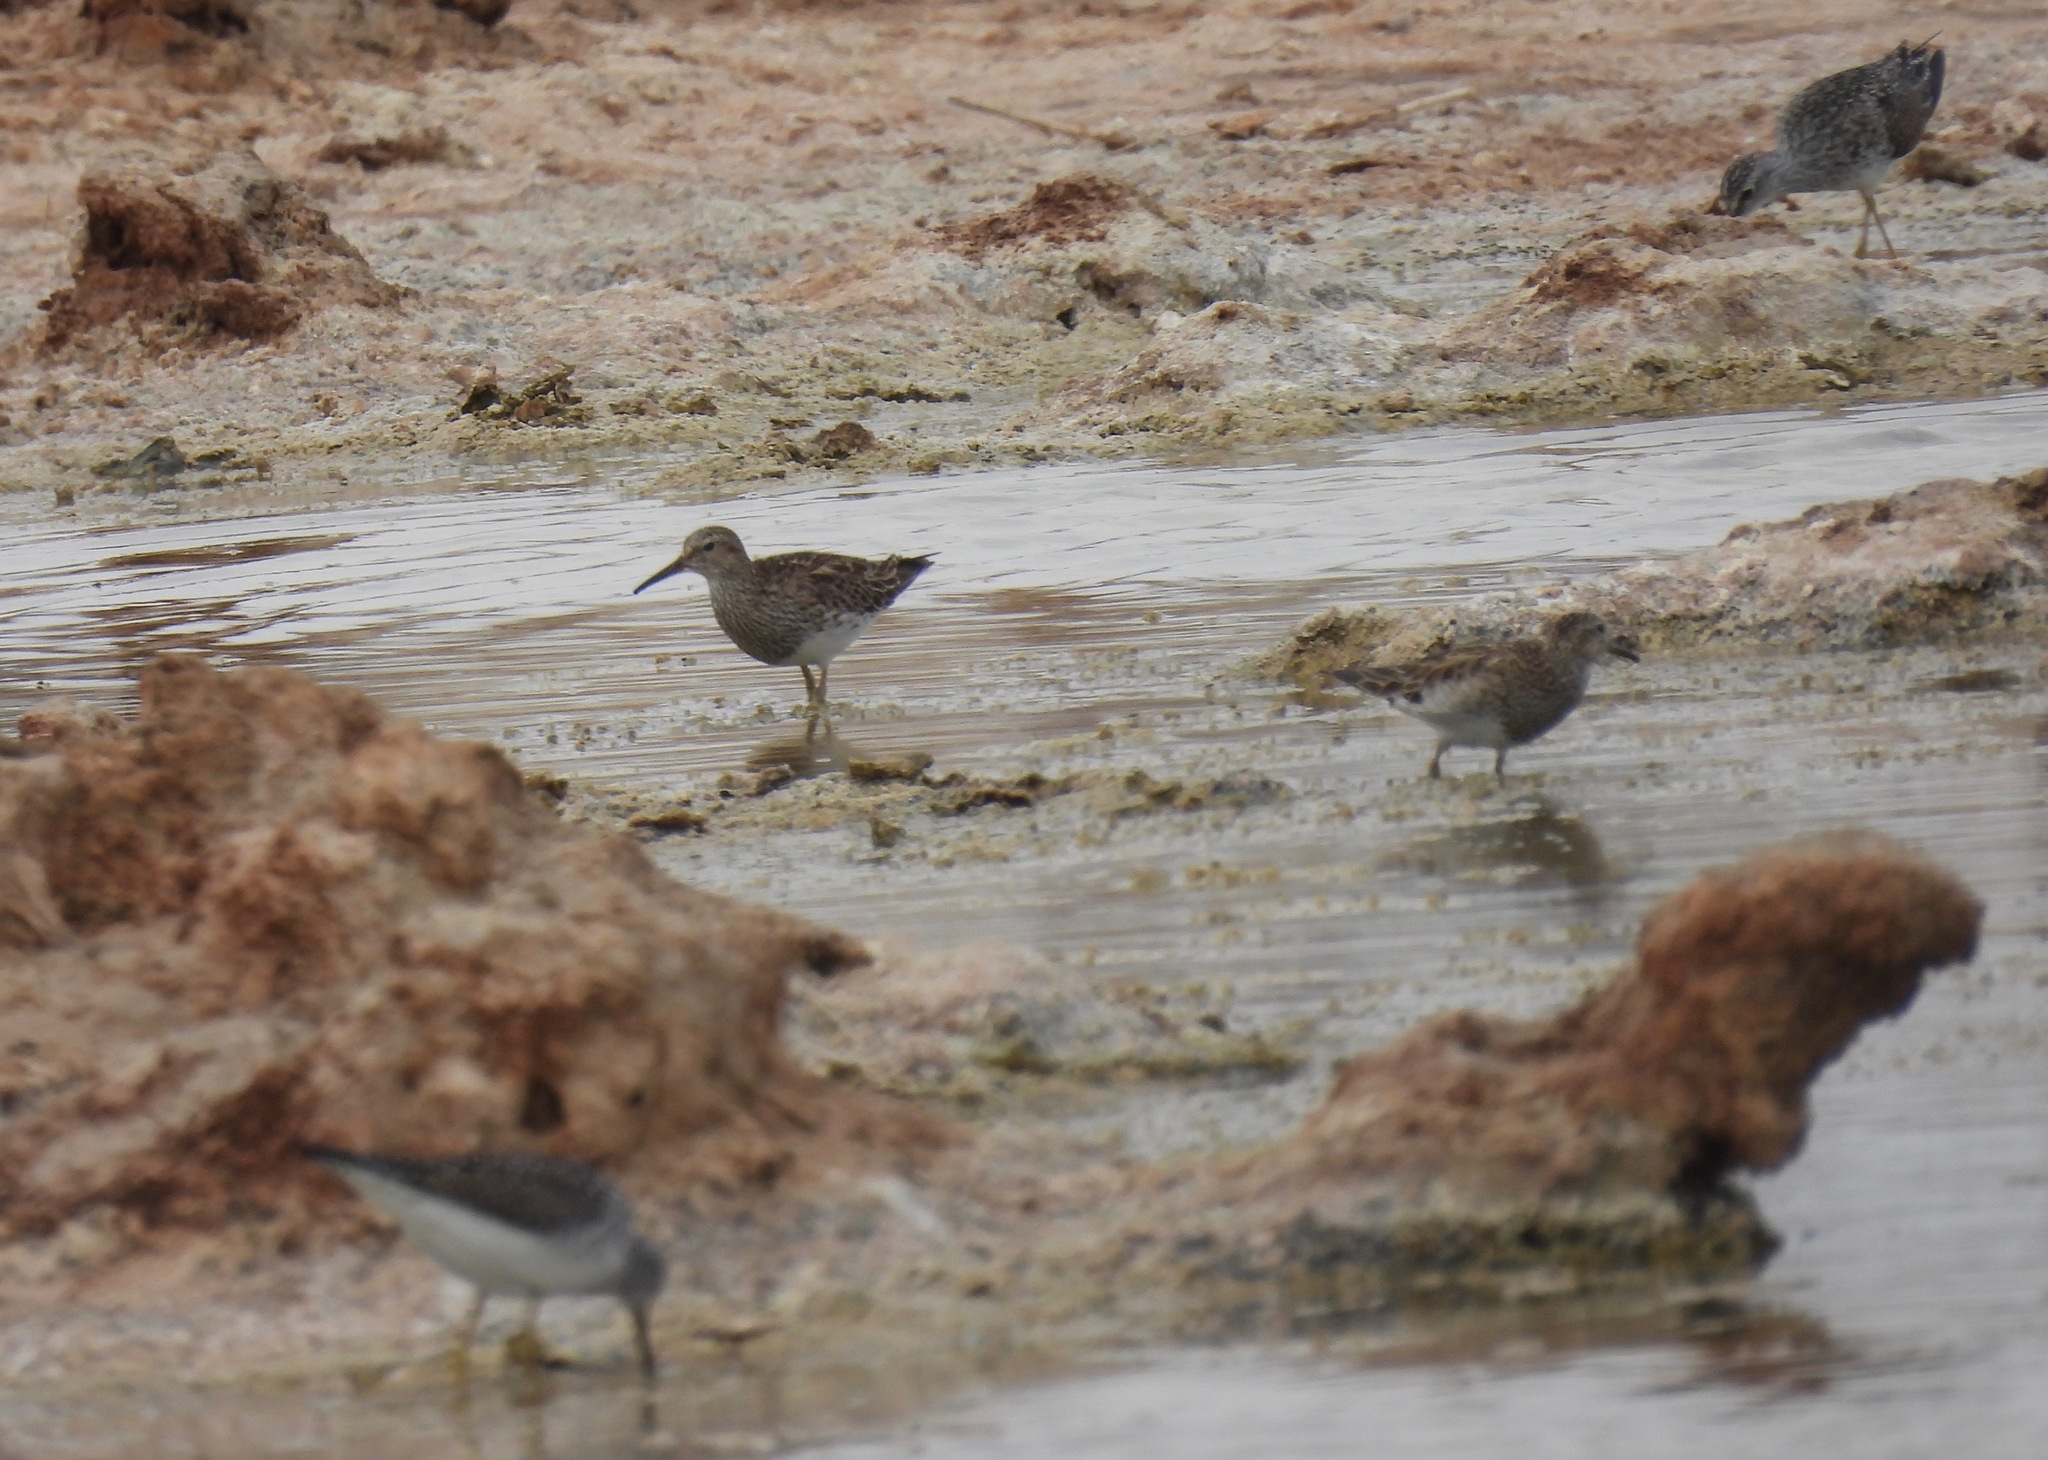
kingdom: Animalia
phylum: Chordata
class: Aves
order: Charadriiformes
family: Scolopacidae
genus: Calidris
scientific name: Calidris melanotos
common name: Pectoral sandpiper
